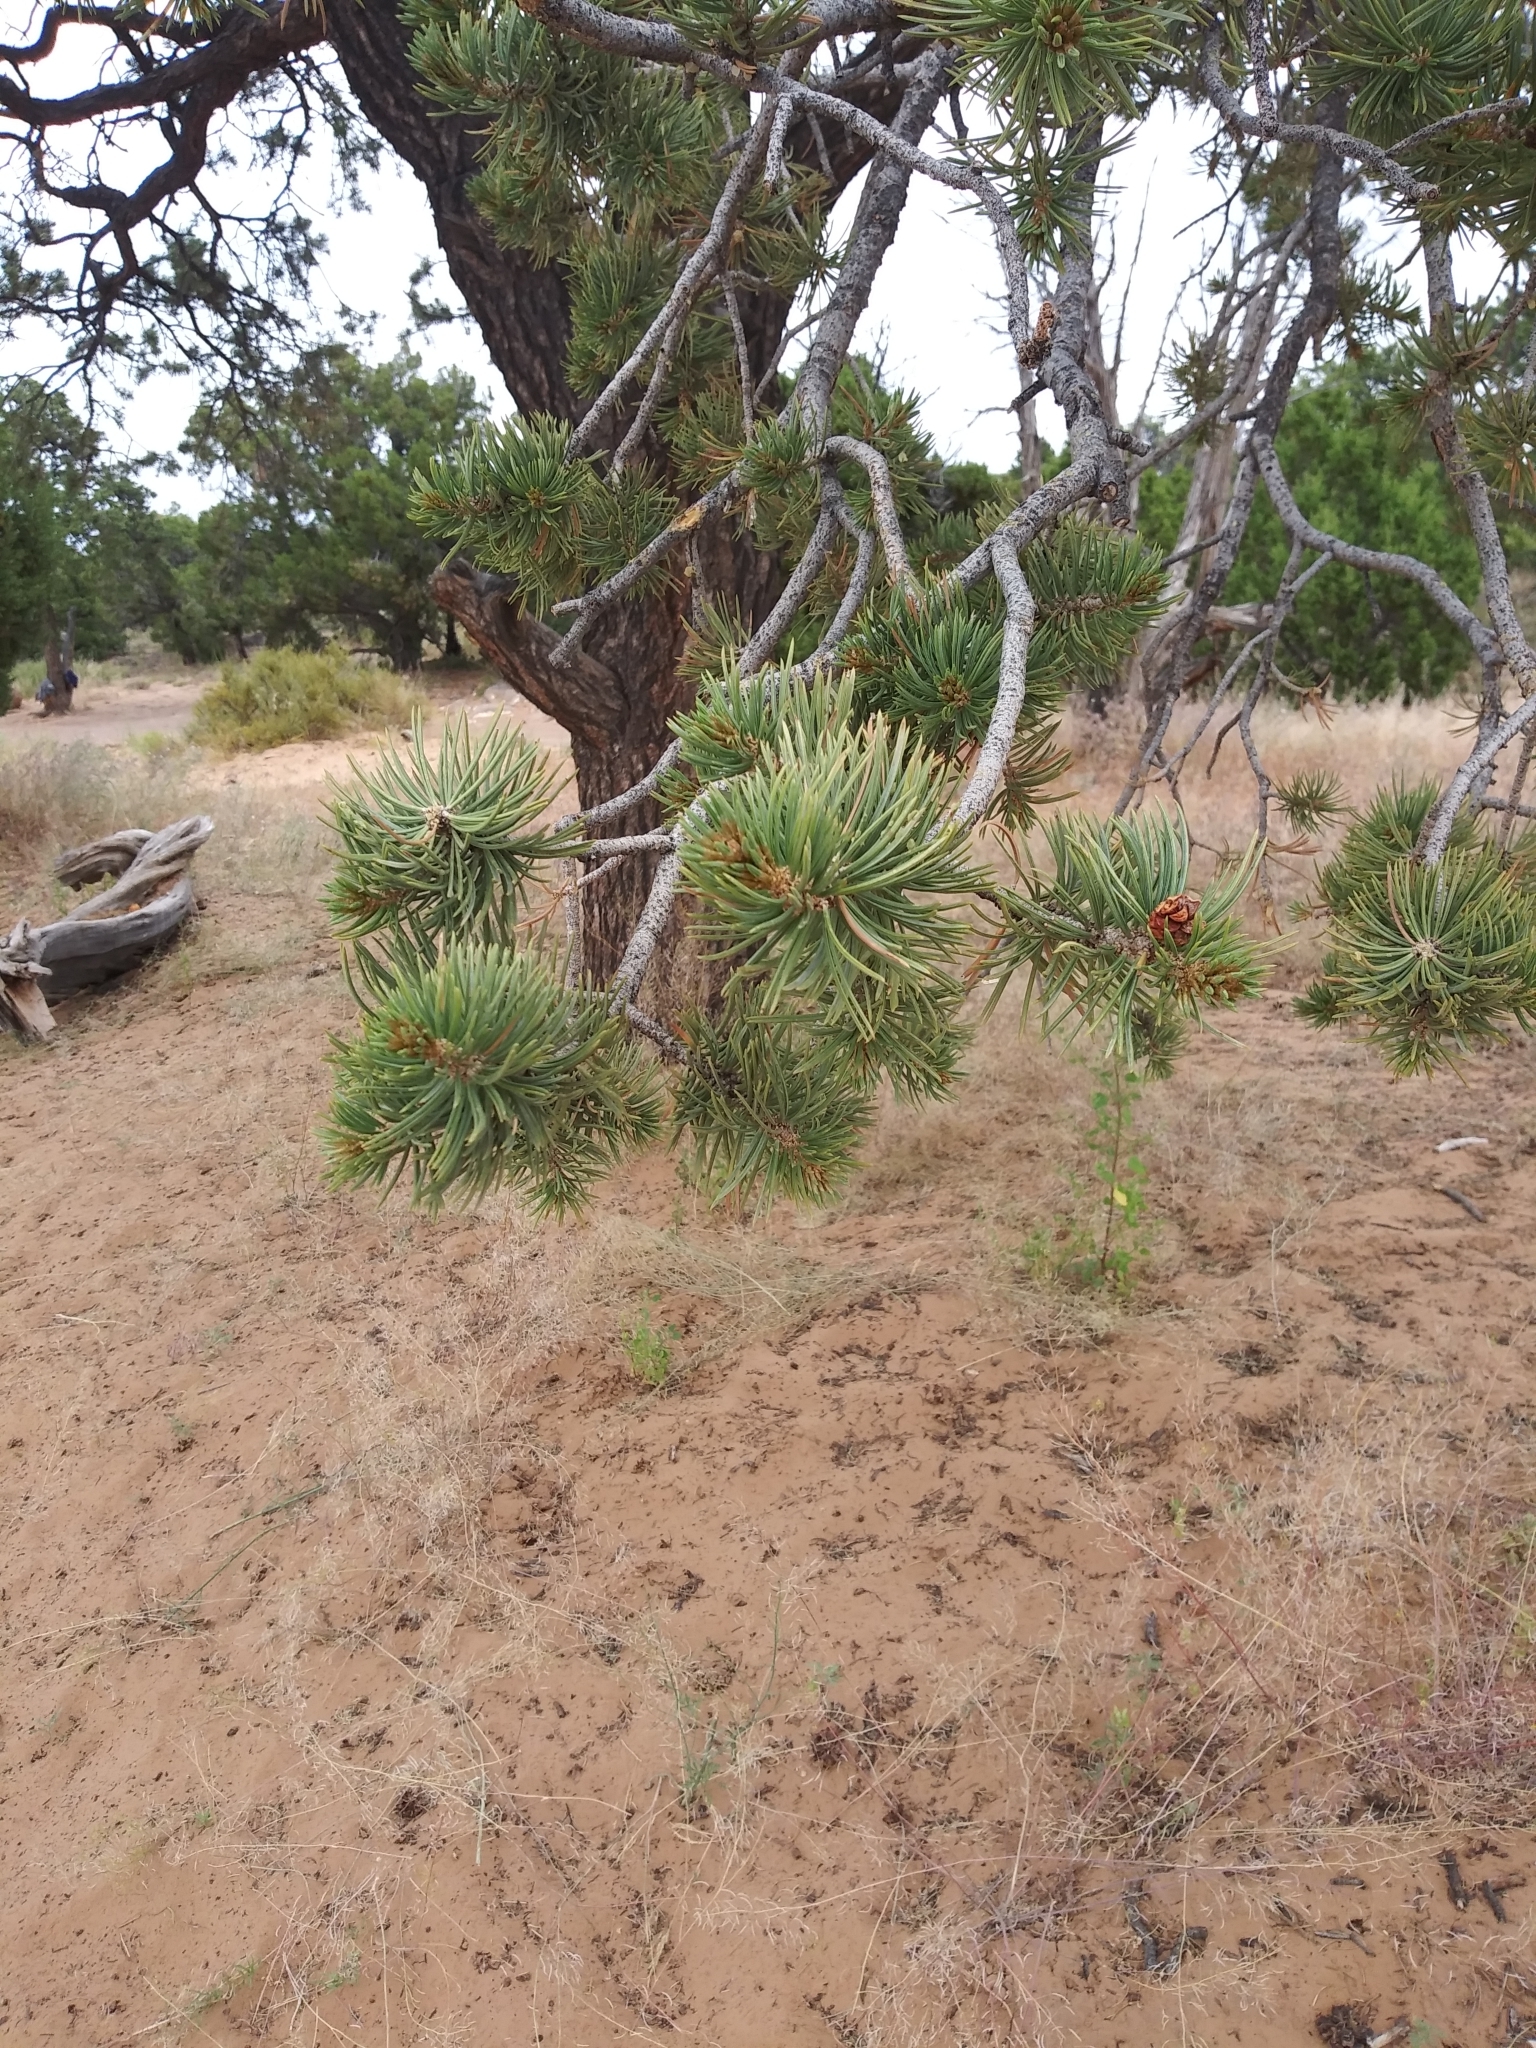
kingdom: Plantae
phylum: Tracheophyta
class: Pinopsida
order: Pinales
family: Pinaceae
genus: Pinus
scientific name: Pinus edulis
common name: Colorado pinyon
